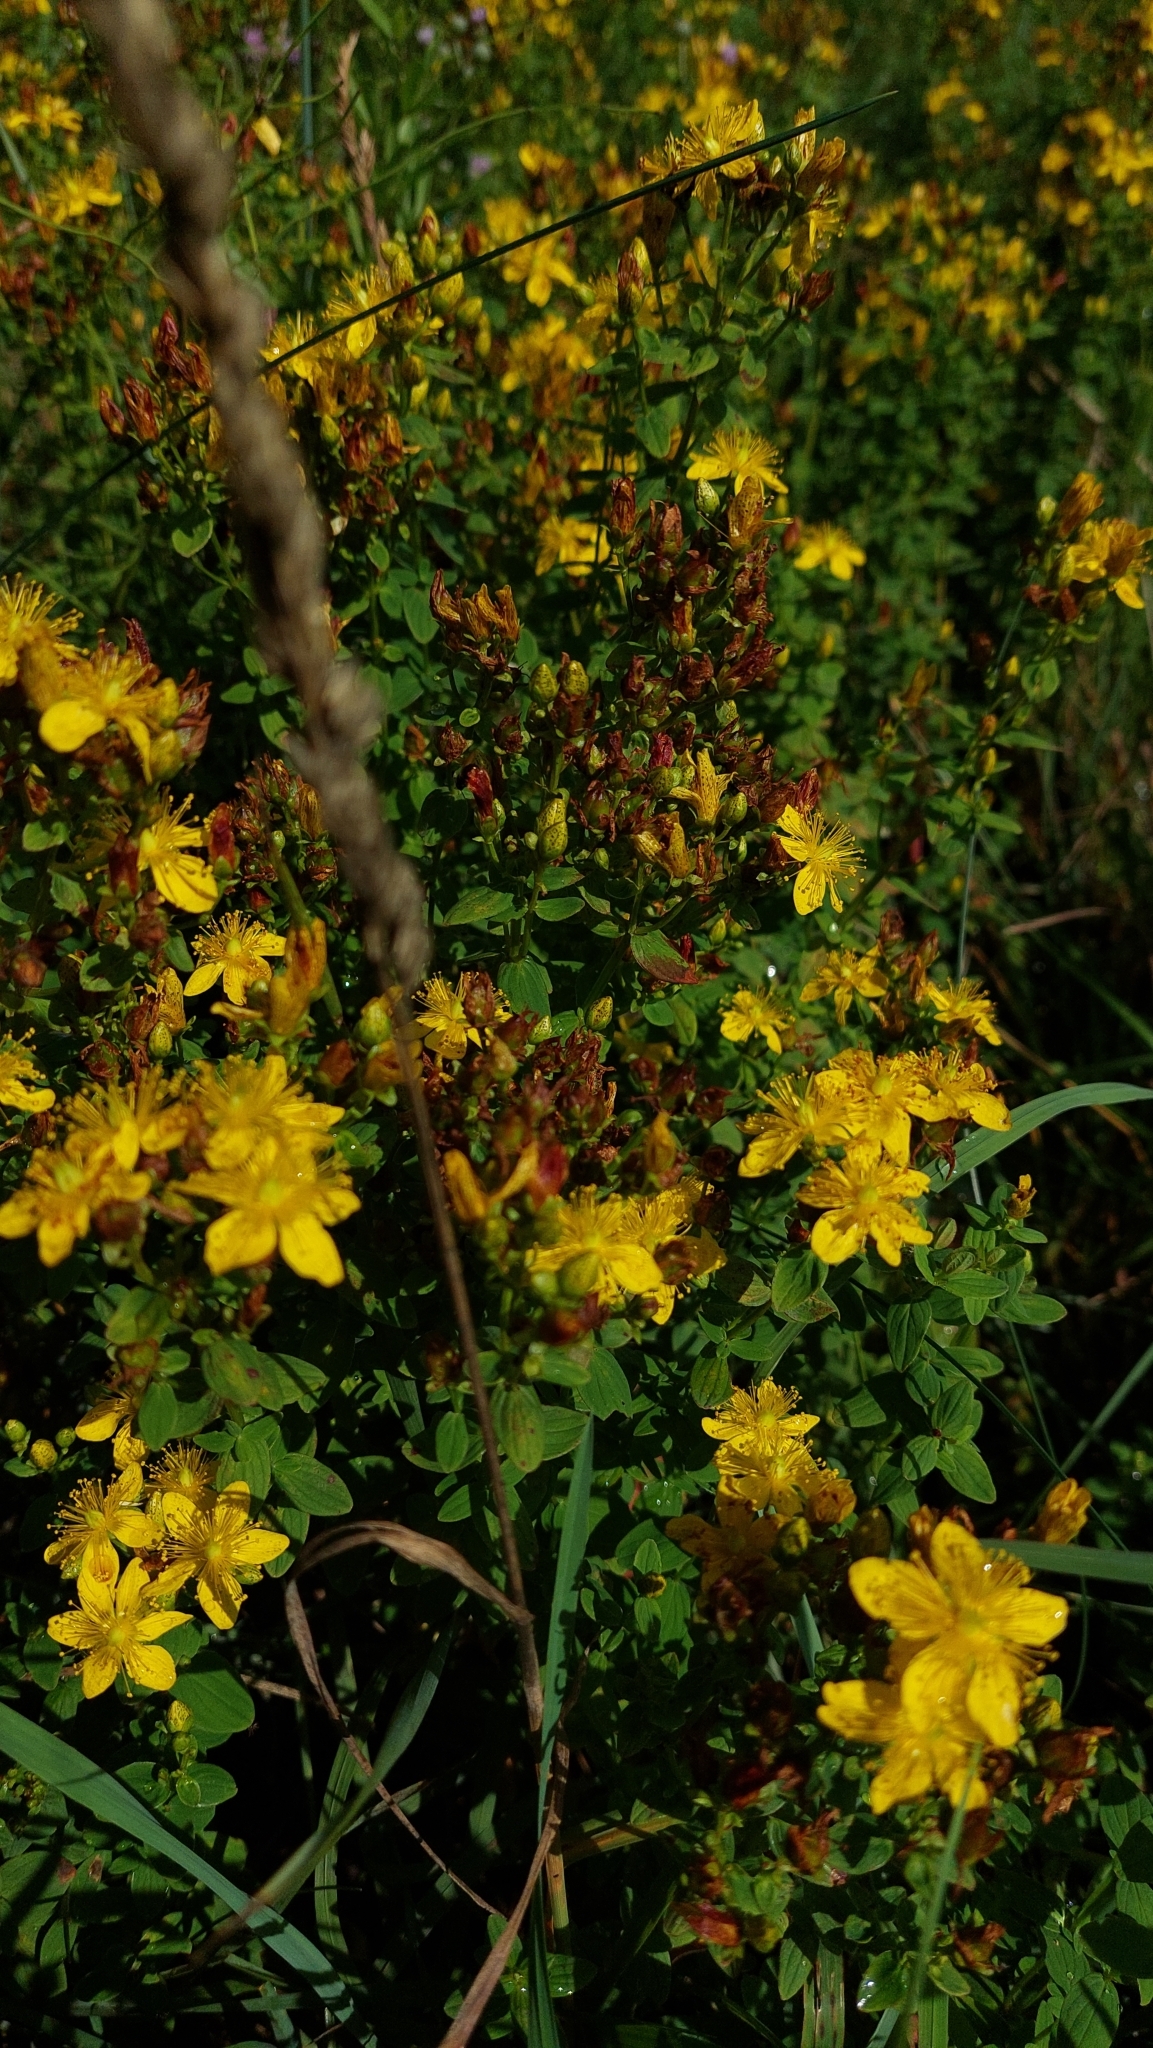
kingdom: Plantae
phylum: Tracheophyta
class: Magnoliopsida
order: Malpighiales
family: Hypericaceae
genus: Hypericum
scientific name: Hypericum maculatum
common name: Imperforate st. john's-wort
